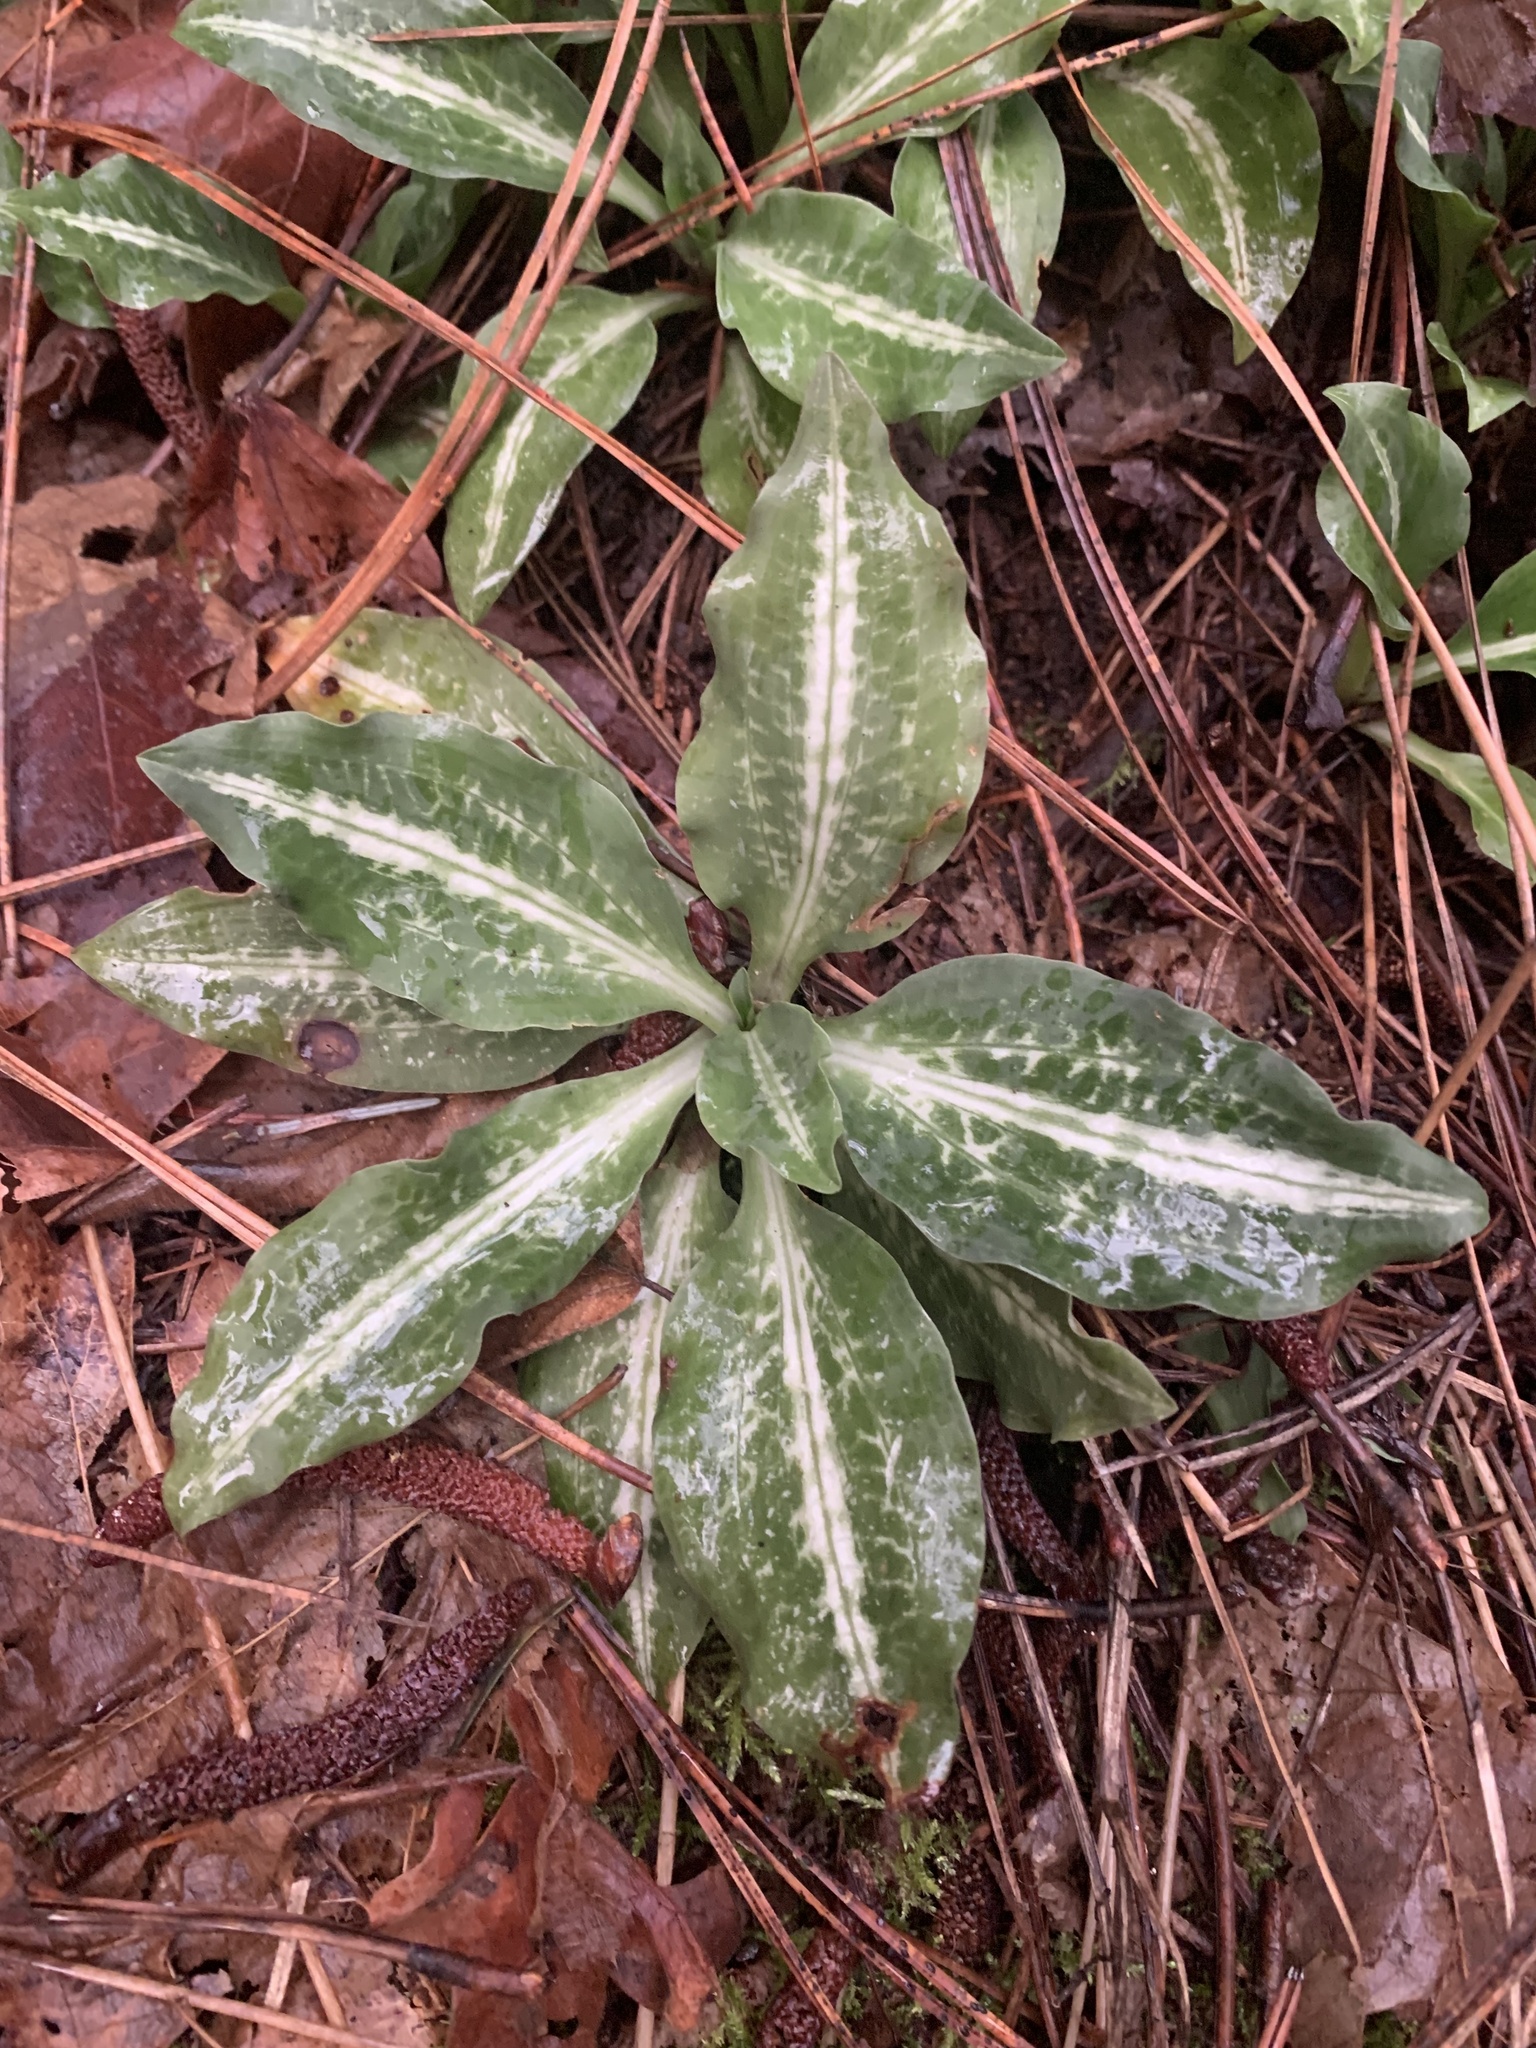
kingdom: Plantae
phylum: Tracheophyta
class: Liliopsida
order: Asparagales
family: Orchidaceae
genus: Goodyera
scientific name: Goodyera oblongifolia
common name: Giant rattlesnake-plantain
